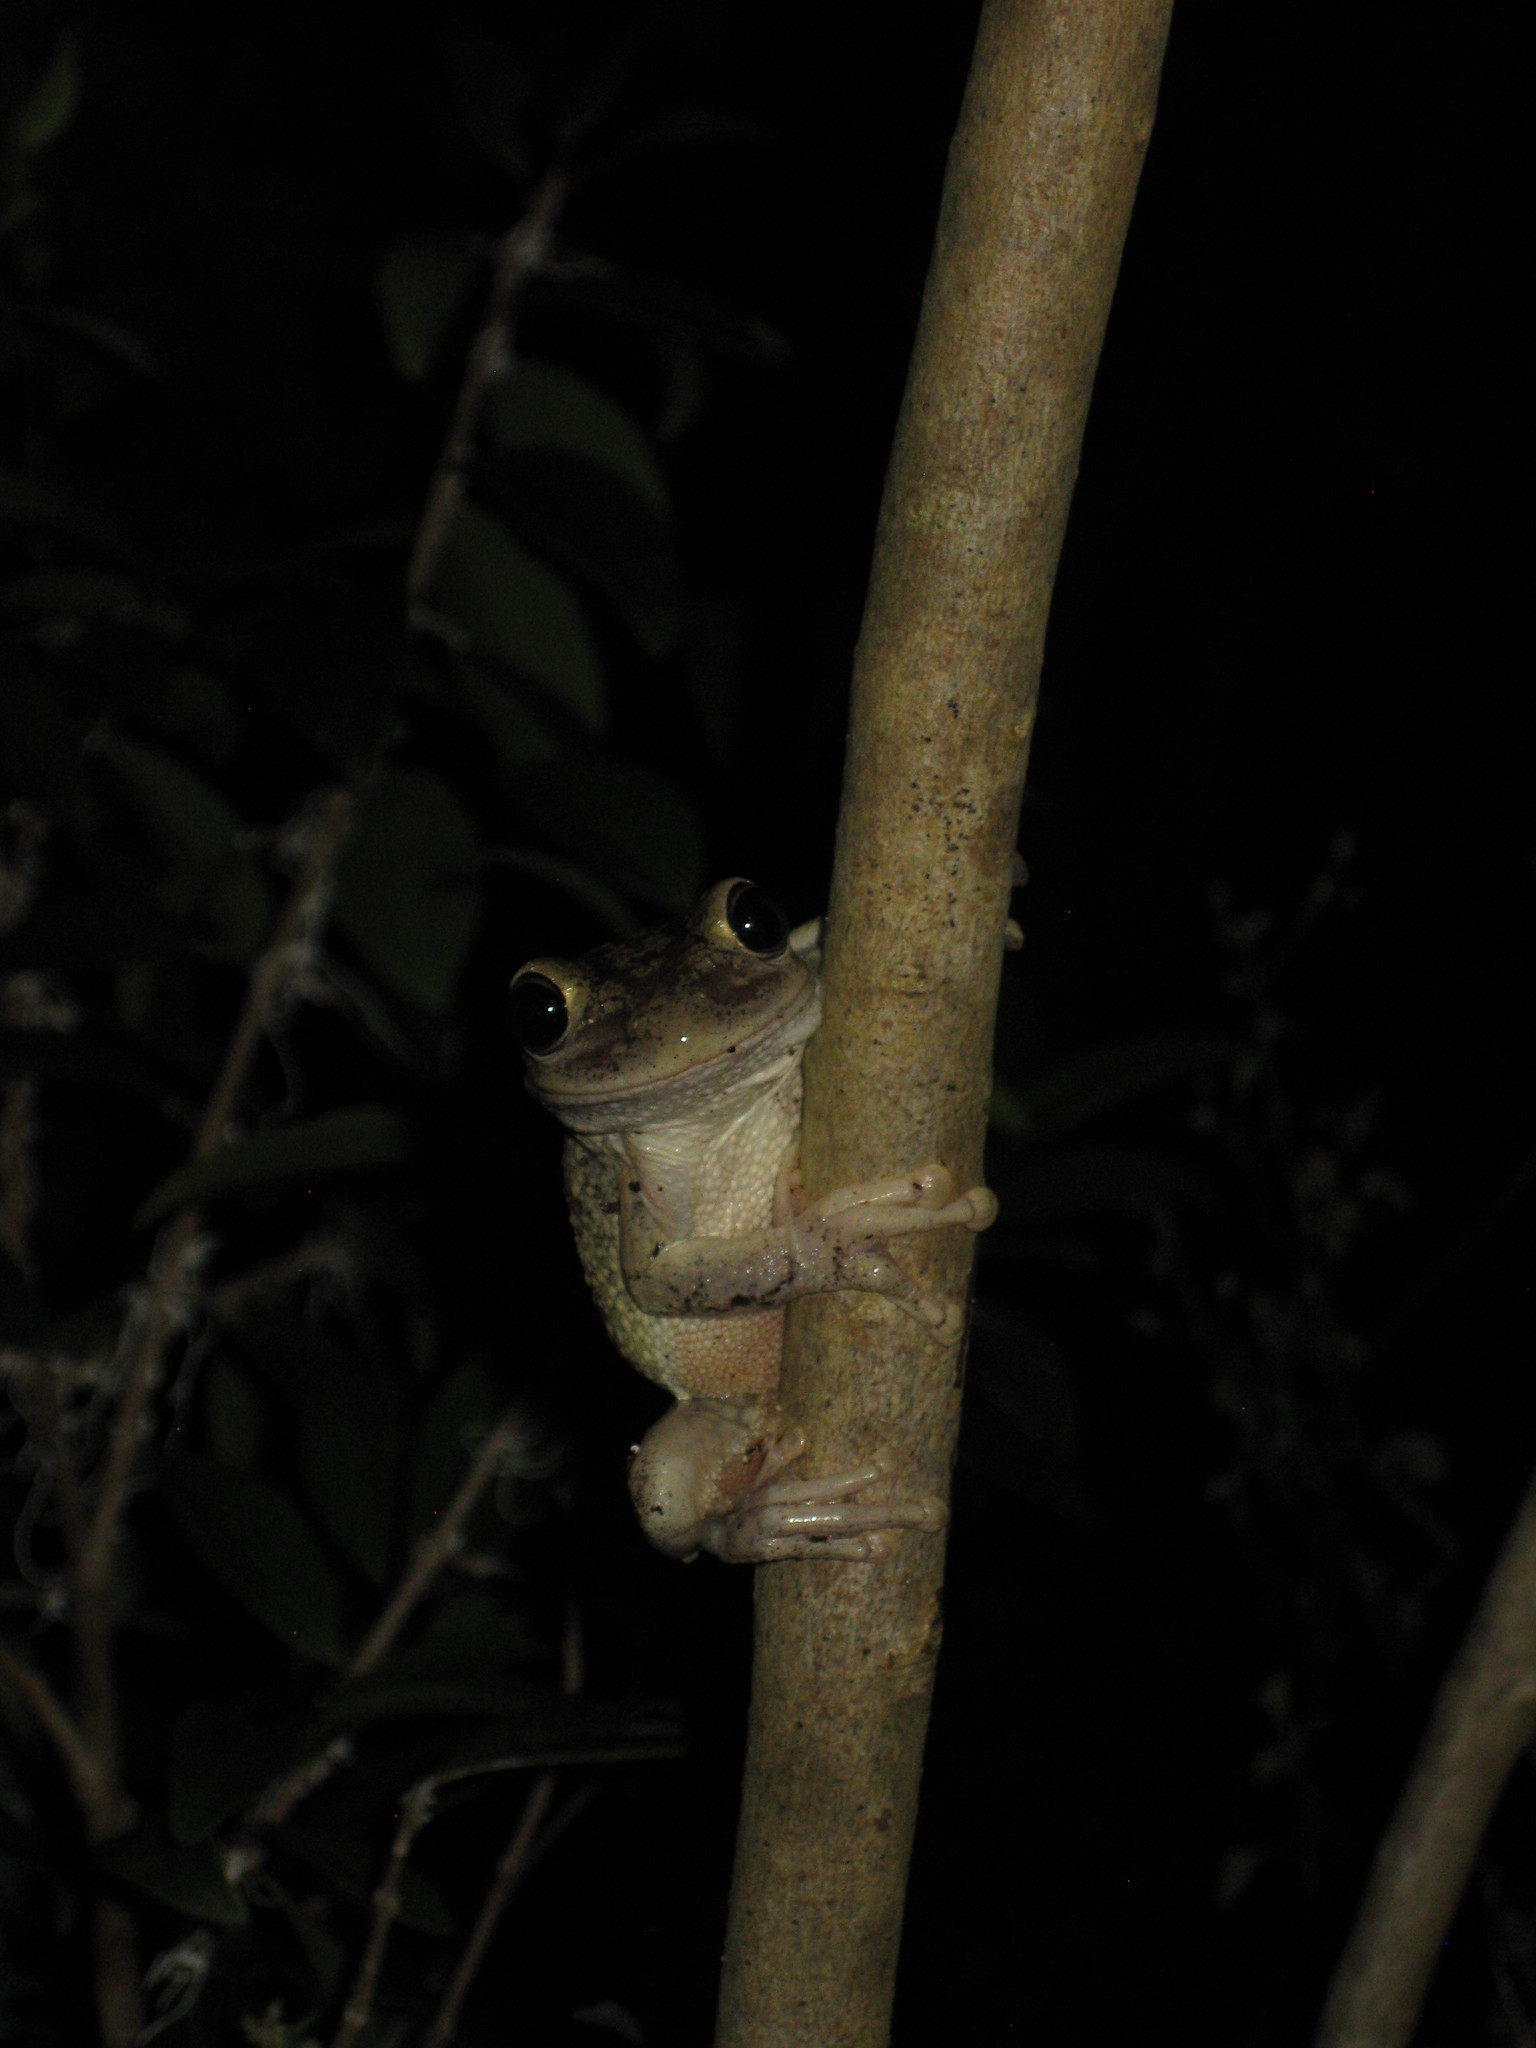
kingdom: Animalia
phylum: Chordata
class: Amphibia
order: Anura
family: Hylidae
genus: Osteopilus
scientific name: Osteopilus septentrionalis
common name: Cuban treefrog
